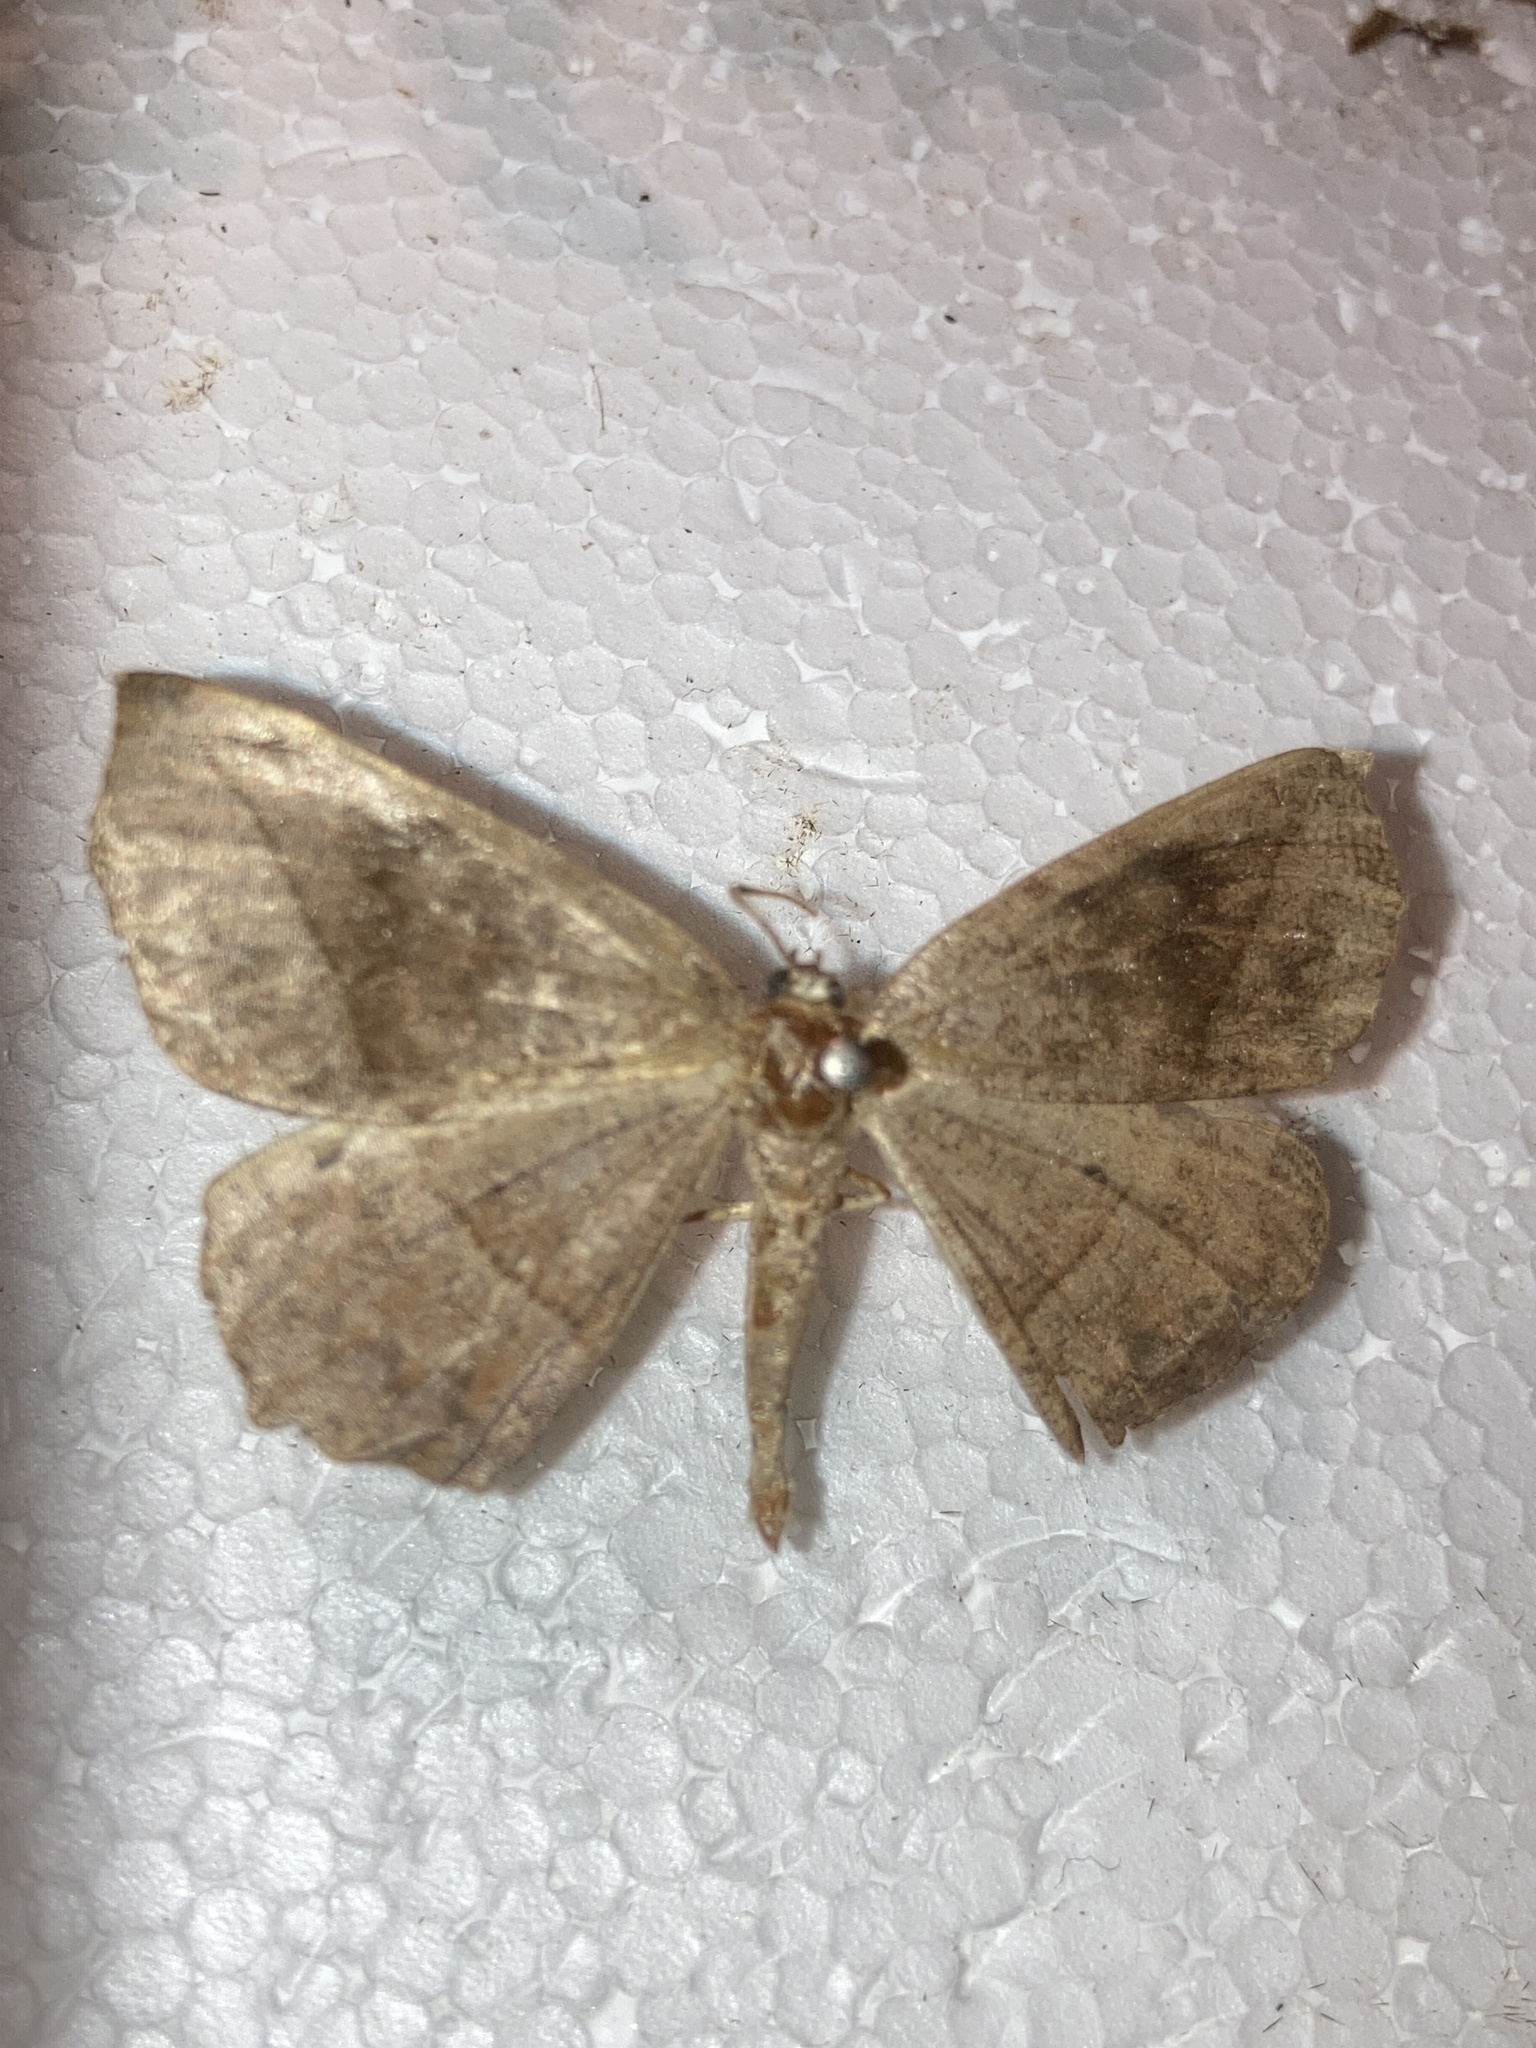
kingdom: Animalia
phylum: Arthropoda
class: Insecta
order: Lepidoptera
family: Geometridae
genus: Eutrapela
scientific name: Eutrapela clemataria
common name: Curved-toothed geometer
